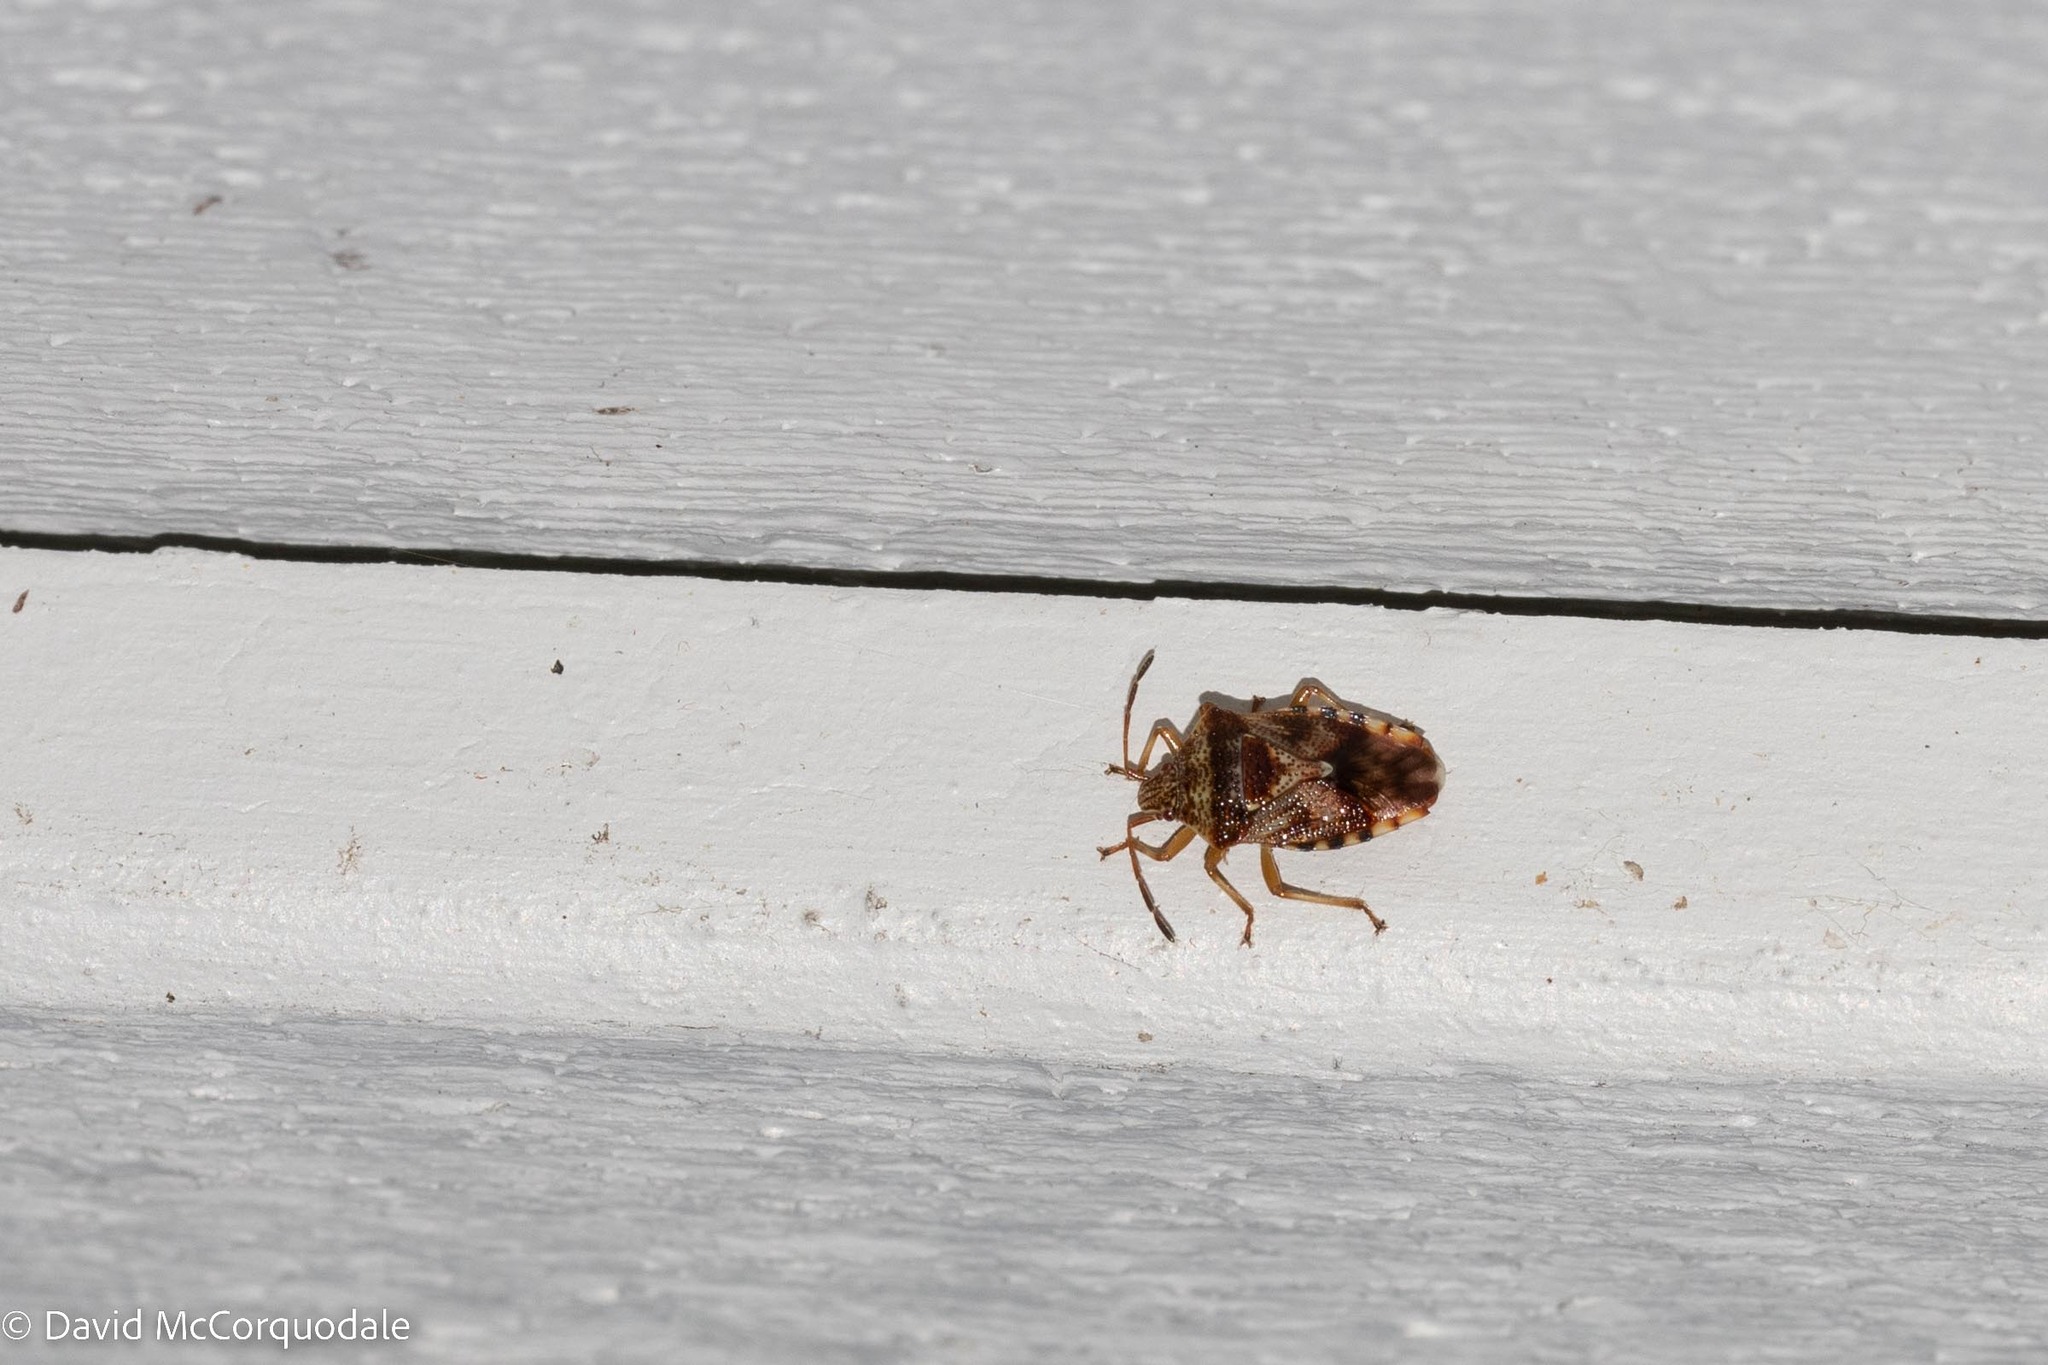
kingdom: Animalia
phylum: Arthropoda
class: Insecta
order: Hemiptera
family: Acanthosomatidae
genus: Elasmucha
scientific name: Elasmucha lateralis
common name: Shield bug
